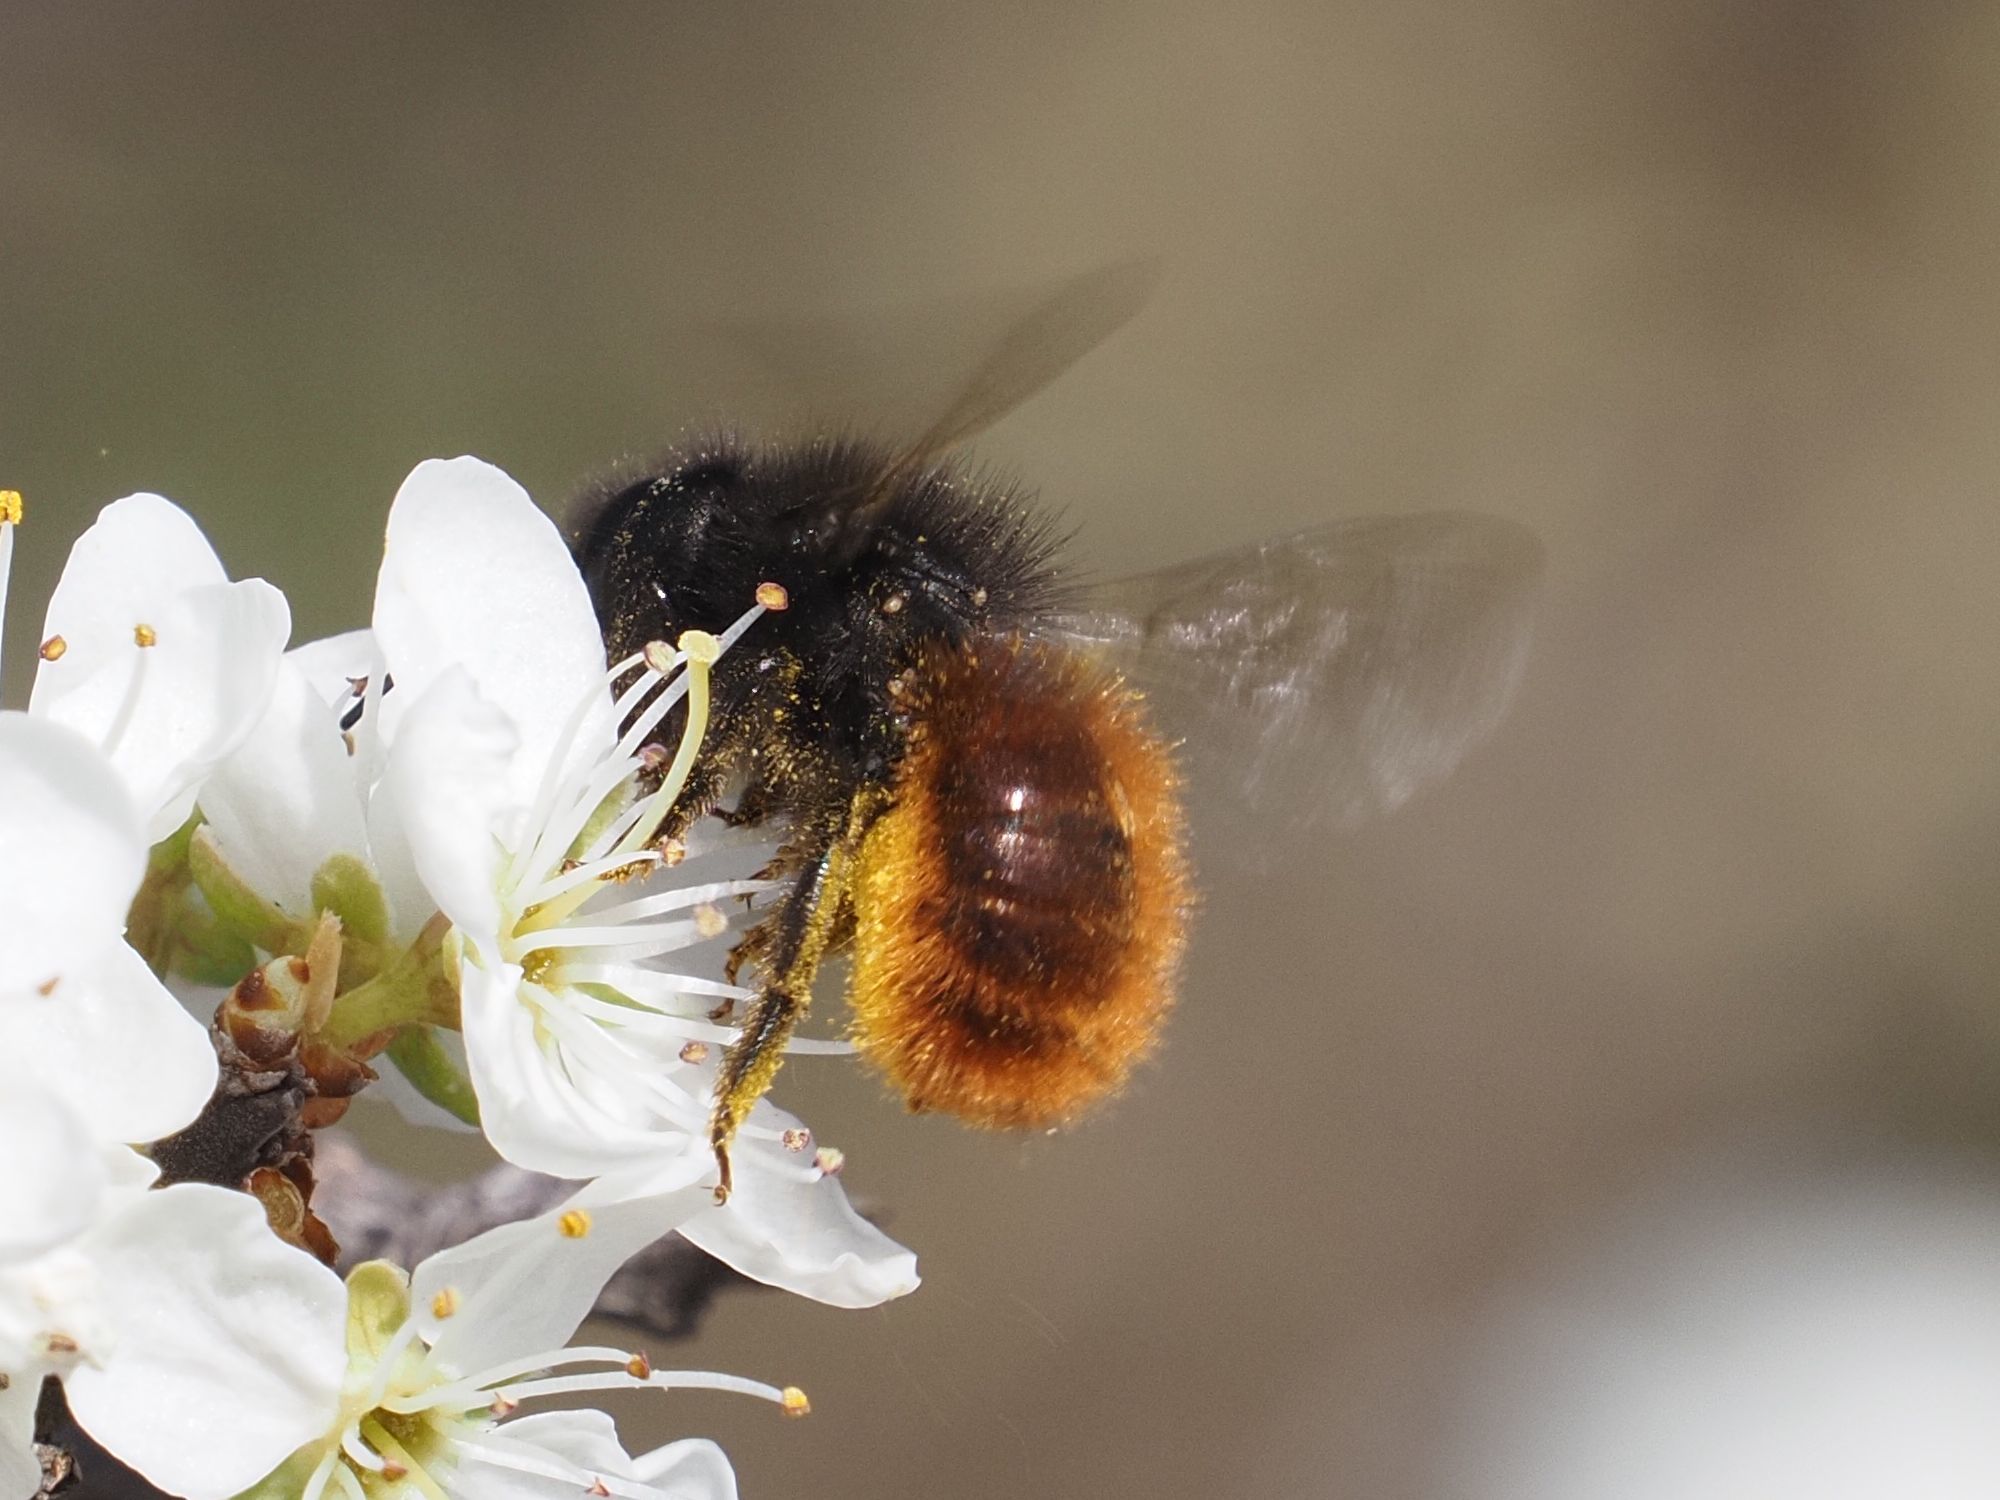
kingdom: Animalia
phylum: Arthropoda
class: Insecta
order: Hymenoptera
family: Megachilidae
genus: Osmia
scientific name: Osmia cornuta
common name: Mason bee
